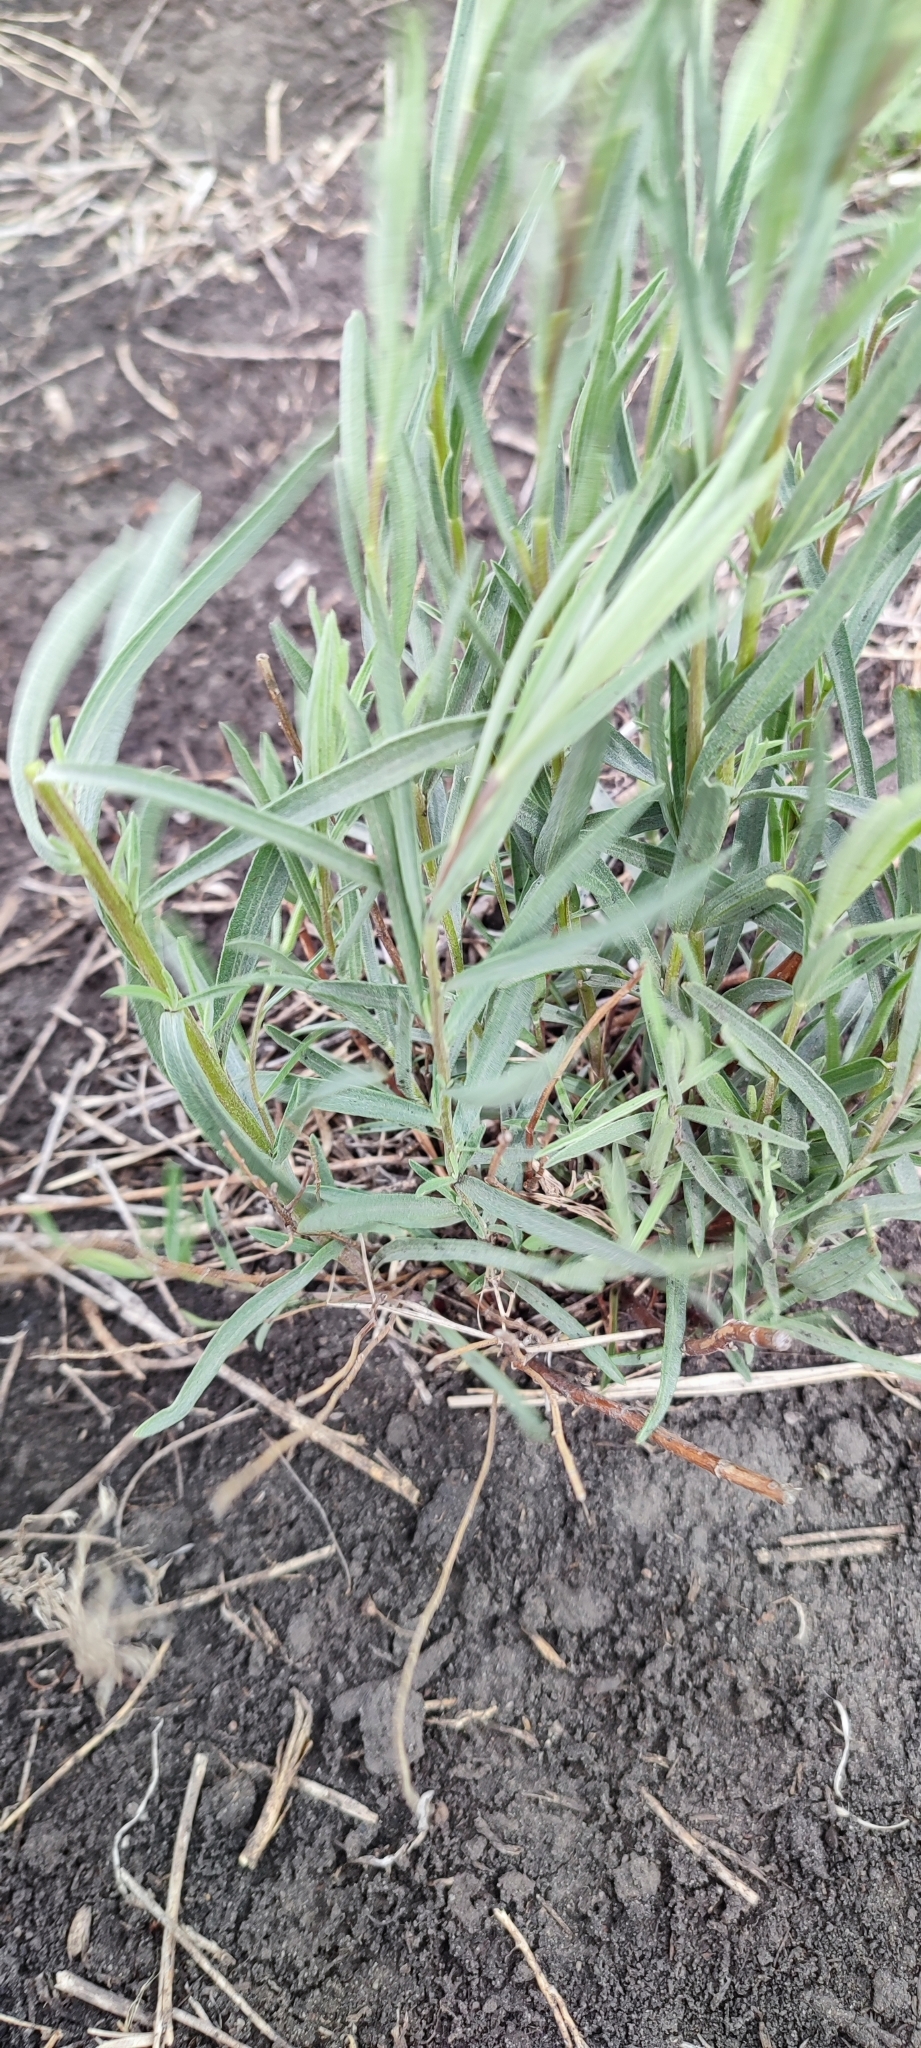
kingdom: Plantae
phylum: Tracheophyta
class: Magnoliopsida
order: Asterales
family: Asteraceae
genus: Artemisia
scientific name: Artemisia dracunculus
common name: Tarragon
